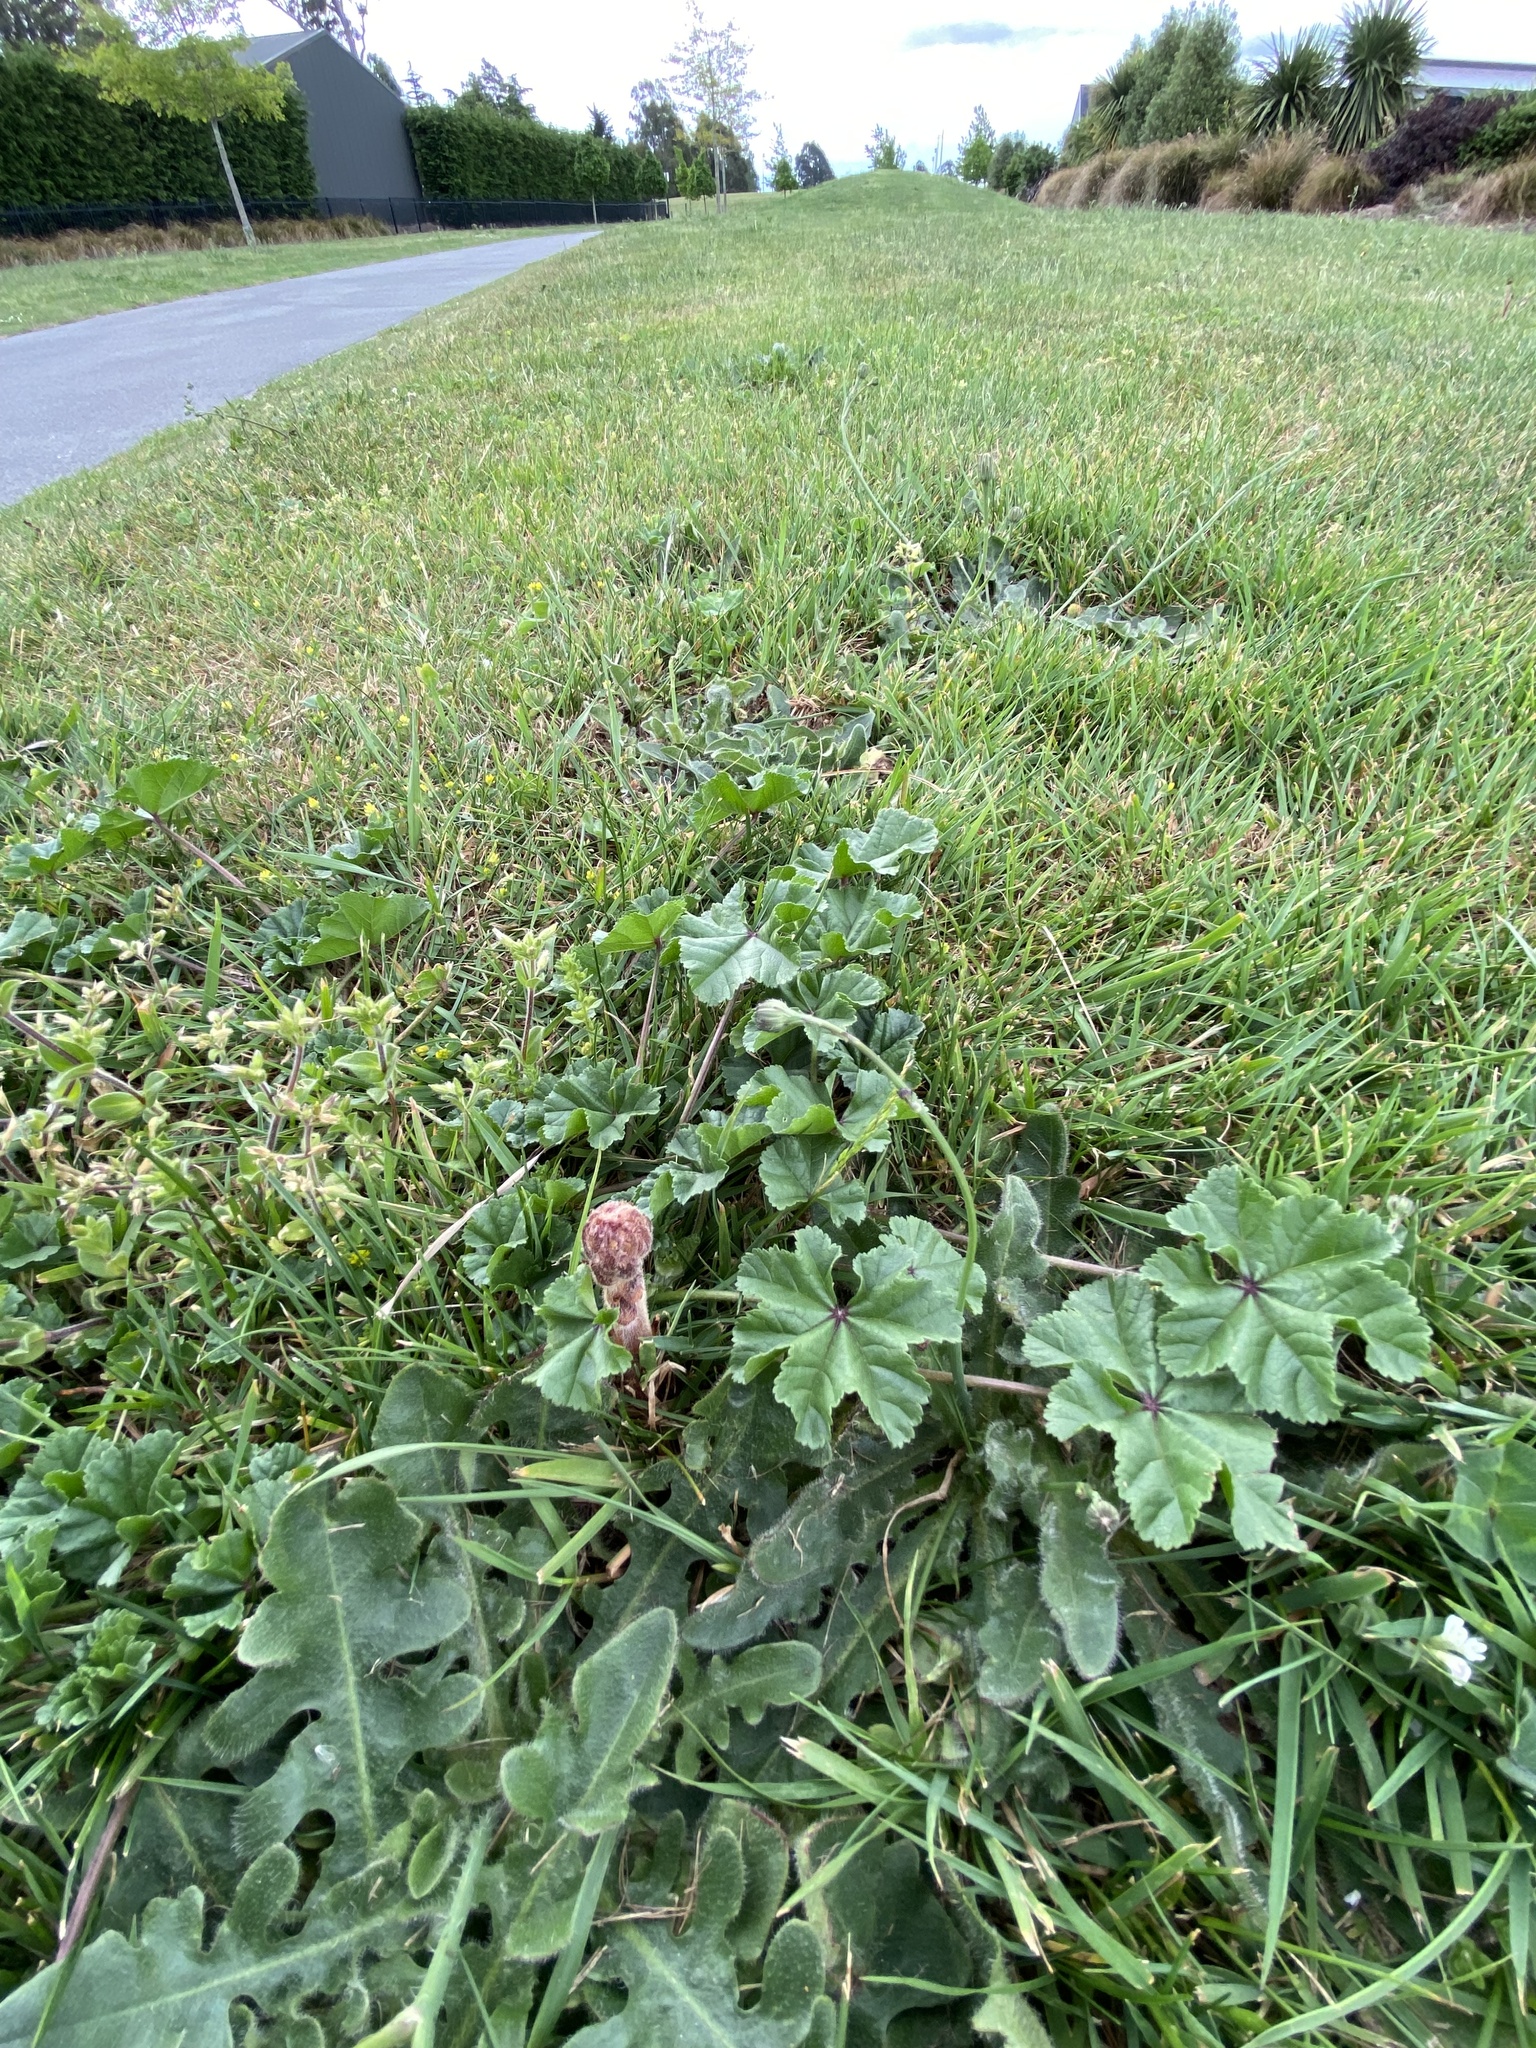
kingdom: Plantae
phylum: Tracheophyta
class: Magnoliopsida
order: Lamiales
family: Orobanchaceae
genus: Orobanche
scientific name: Orobanche minor
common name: Common broomrape
